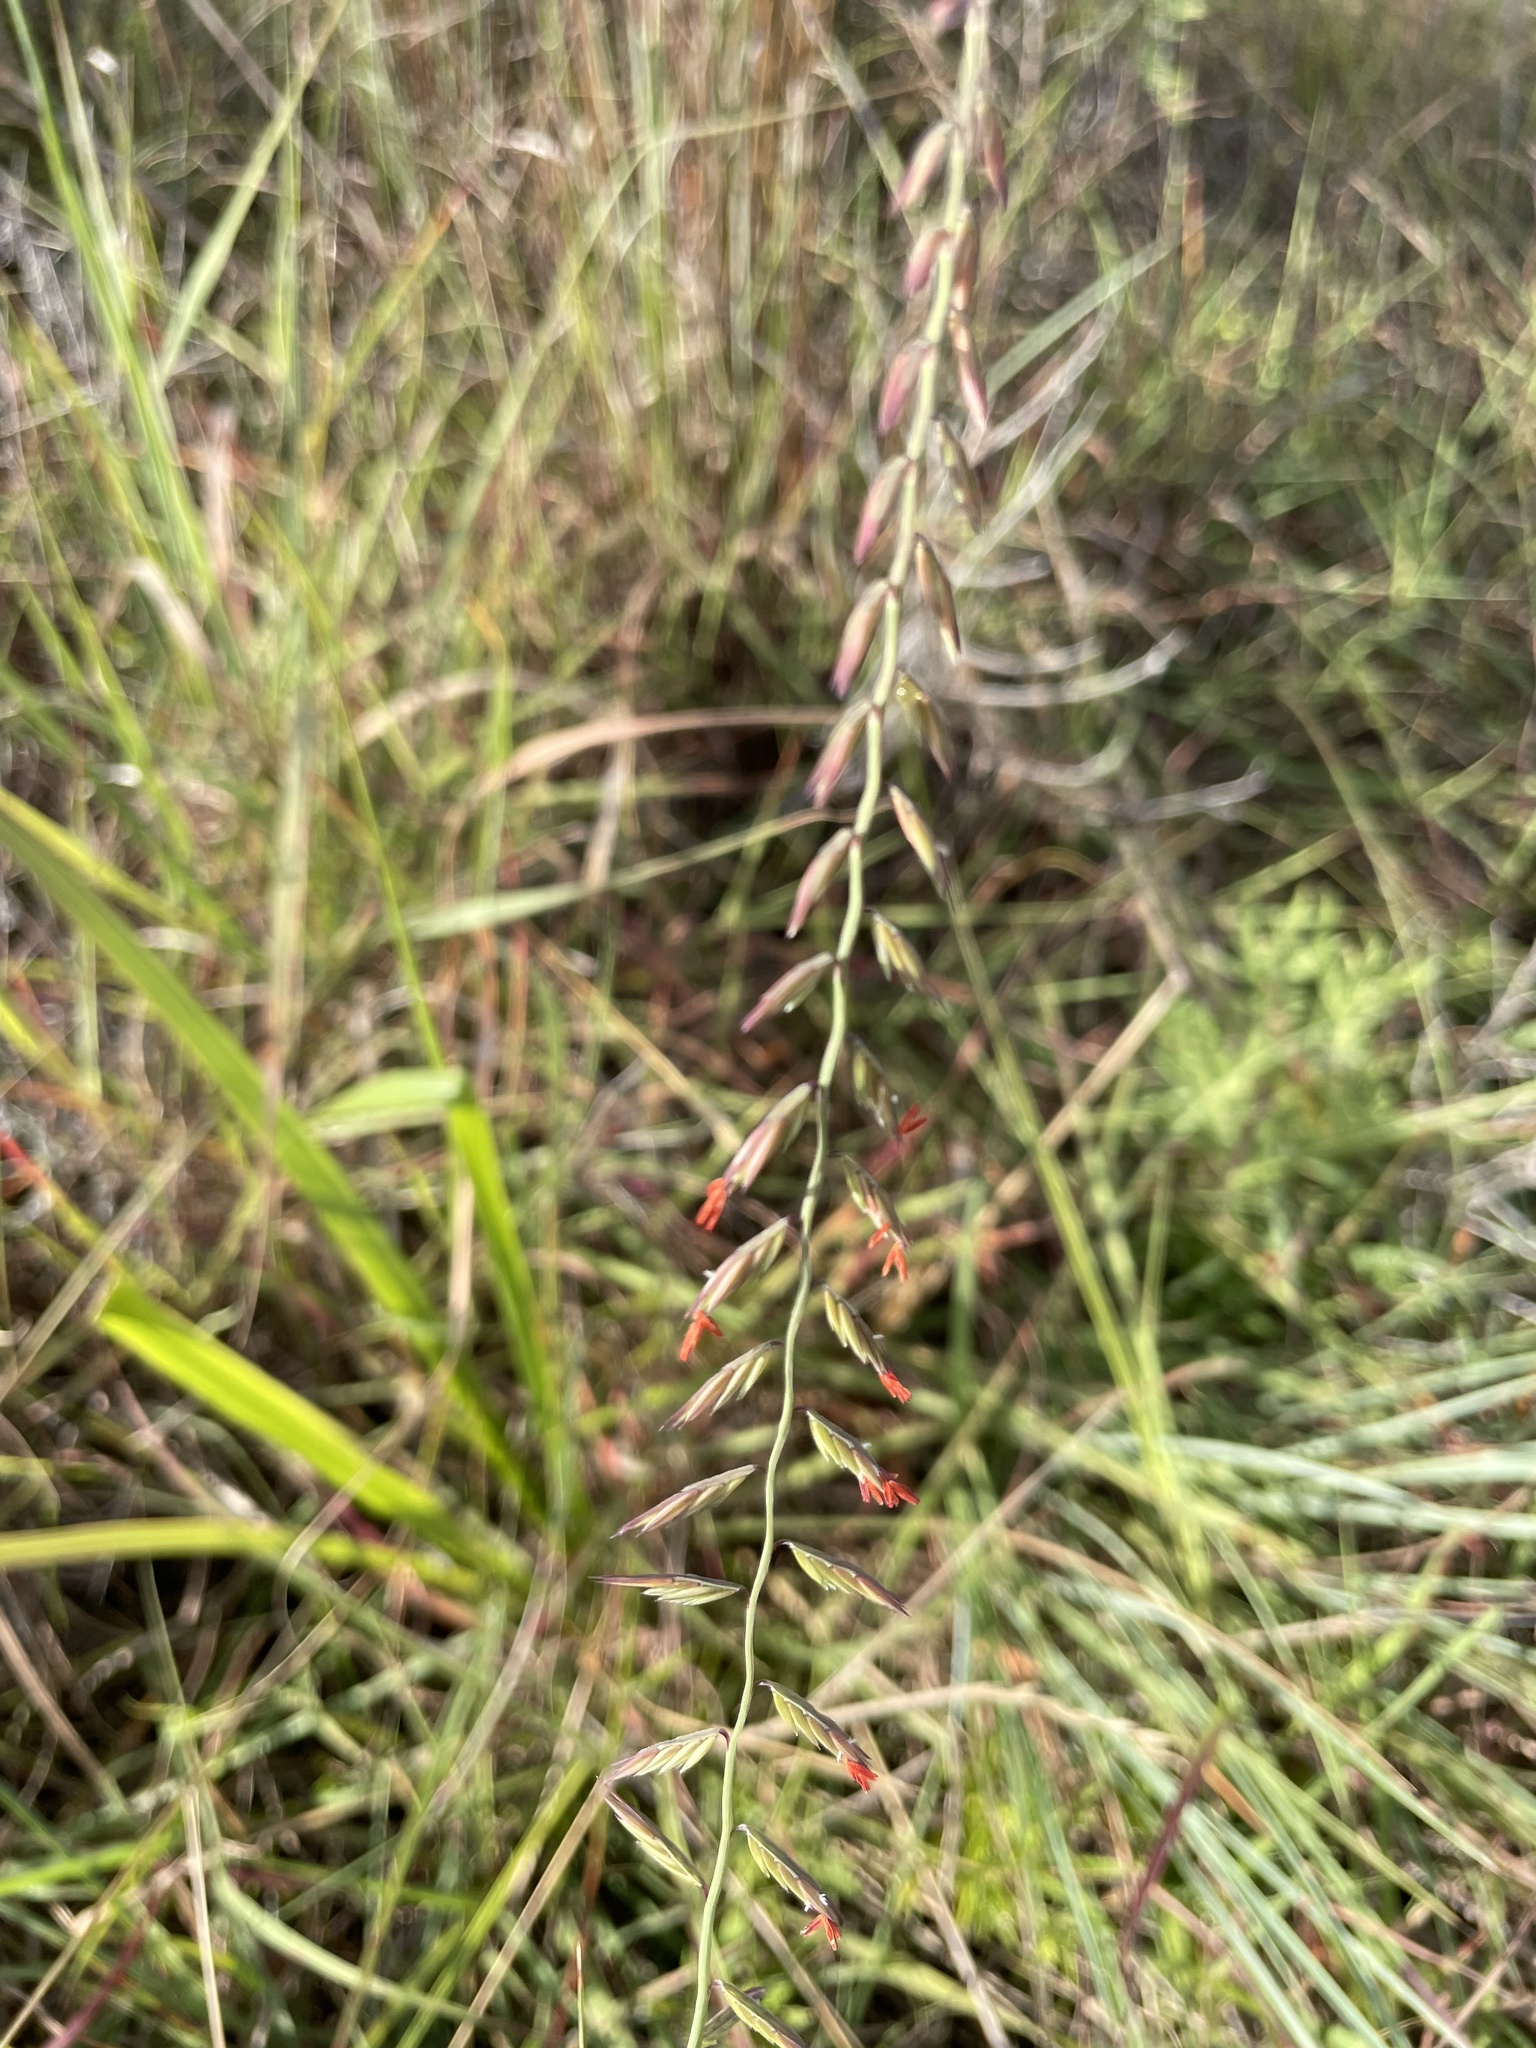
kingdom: Plantae
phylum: Tracheophyta
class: Liliopsida
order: Poales
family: Poaceae
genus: Bouteloua
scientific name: Bouteloua curtipendula
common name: Side-oats grama
